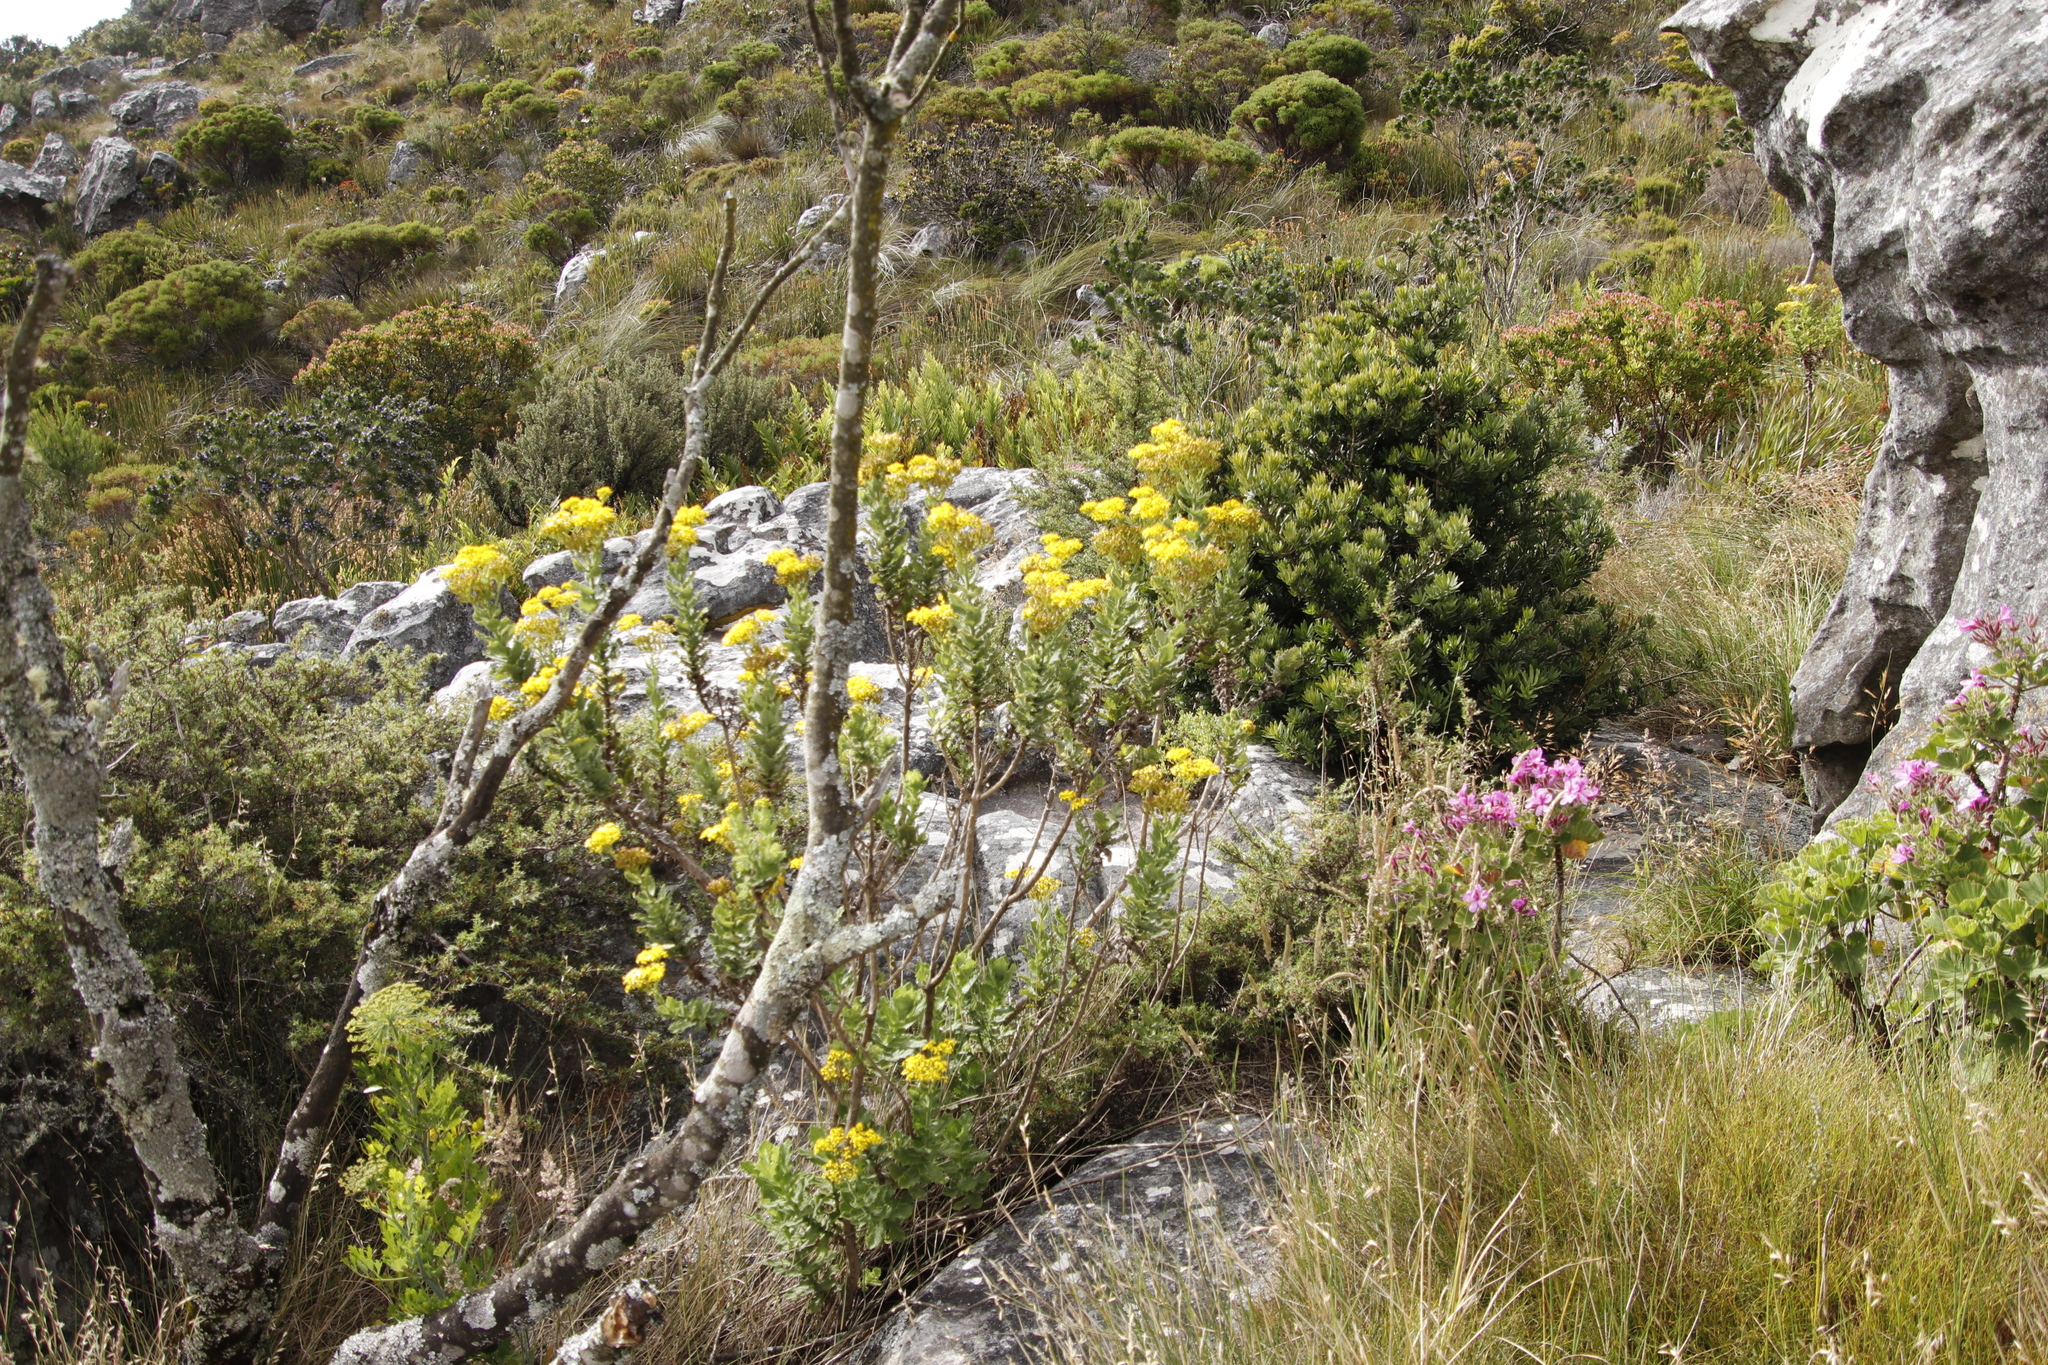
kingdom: Plantae
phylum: Tracheophyta
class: Magnoliopsida
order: Asterales
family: Asteraceae
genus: Senecio
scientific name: Senecio rigidus
